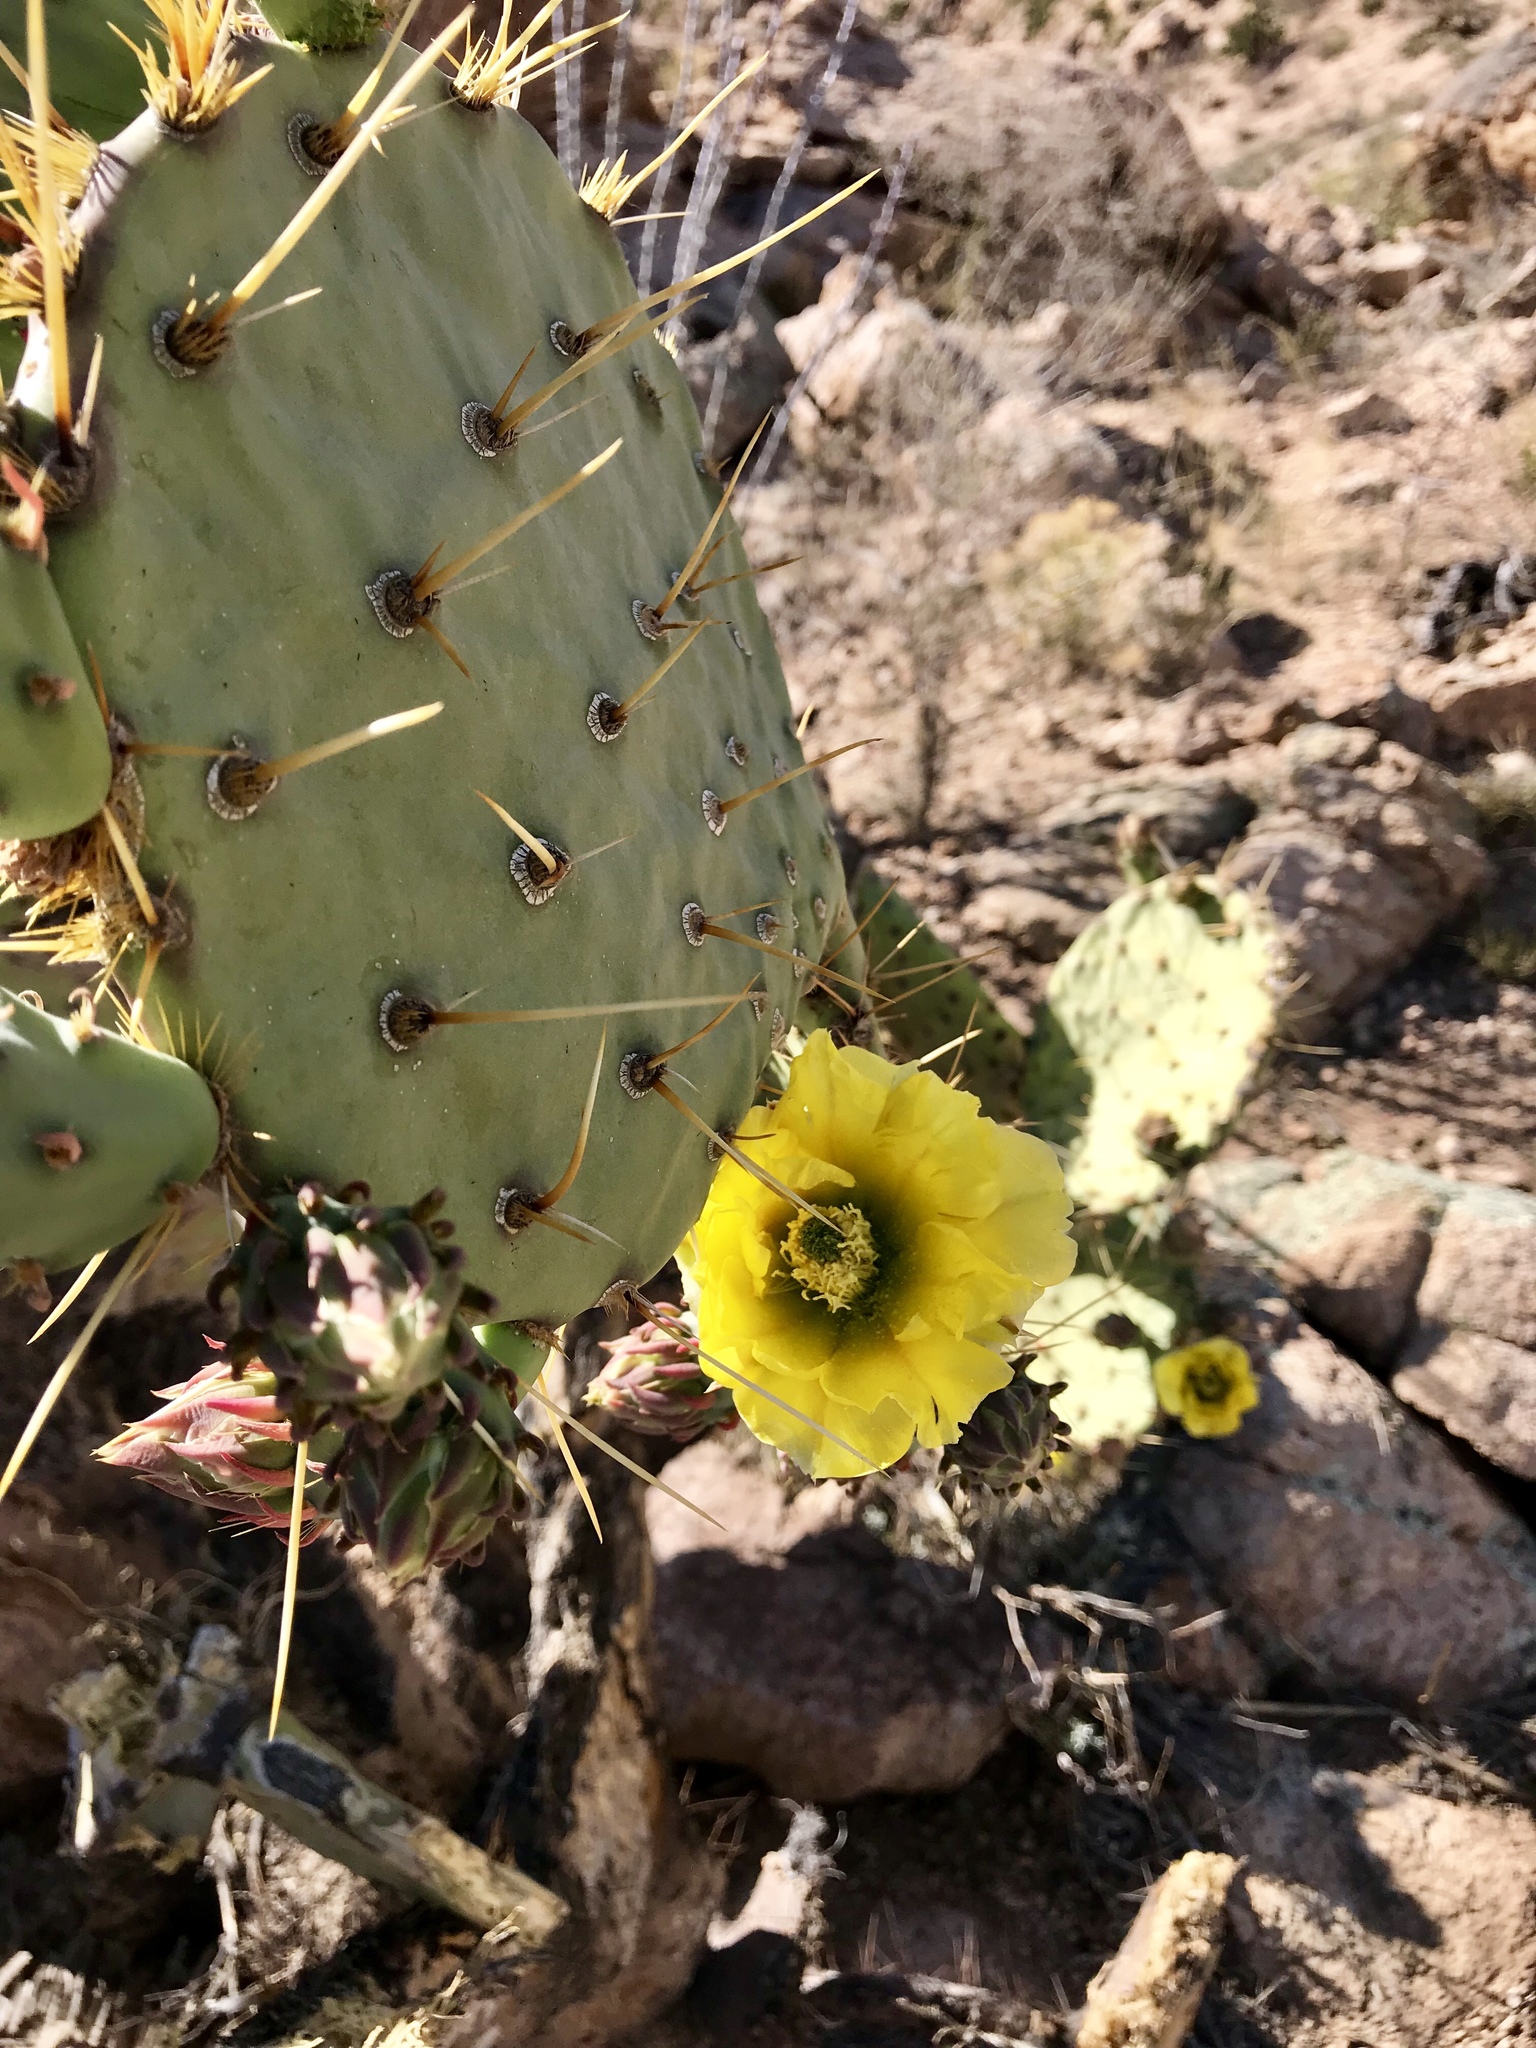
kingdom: Plantae
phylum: Tracheophyta
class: Magnoliopsida
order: Caryophyllales
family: Cactaceae
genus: Opuntia
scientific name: Opuntia chlorotica
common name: Dollar-joint prickly-pear
